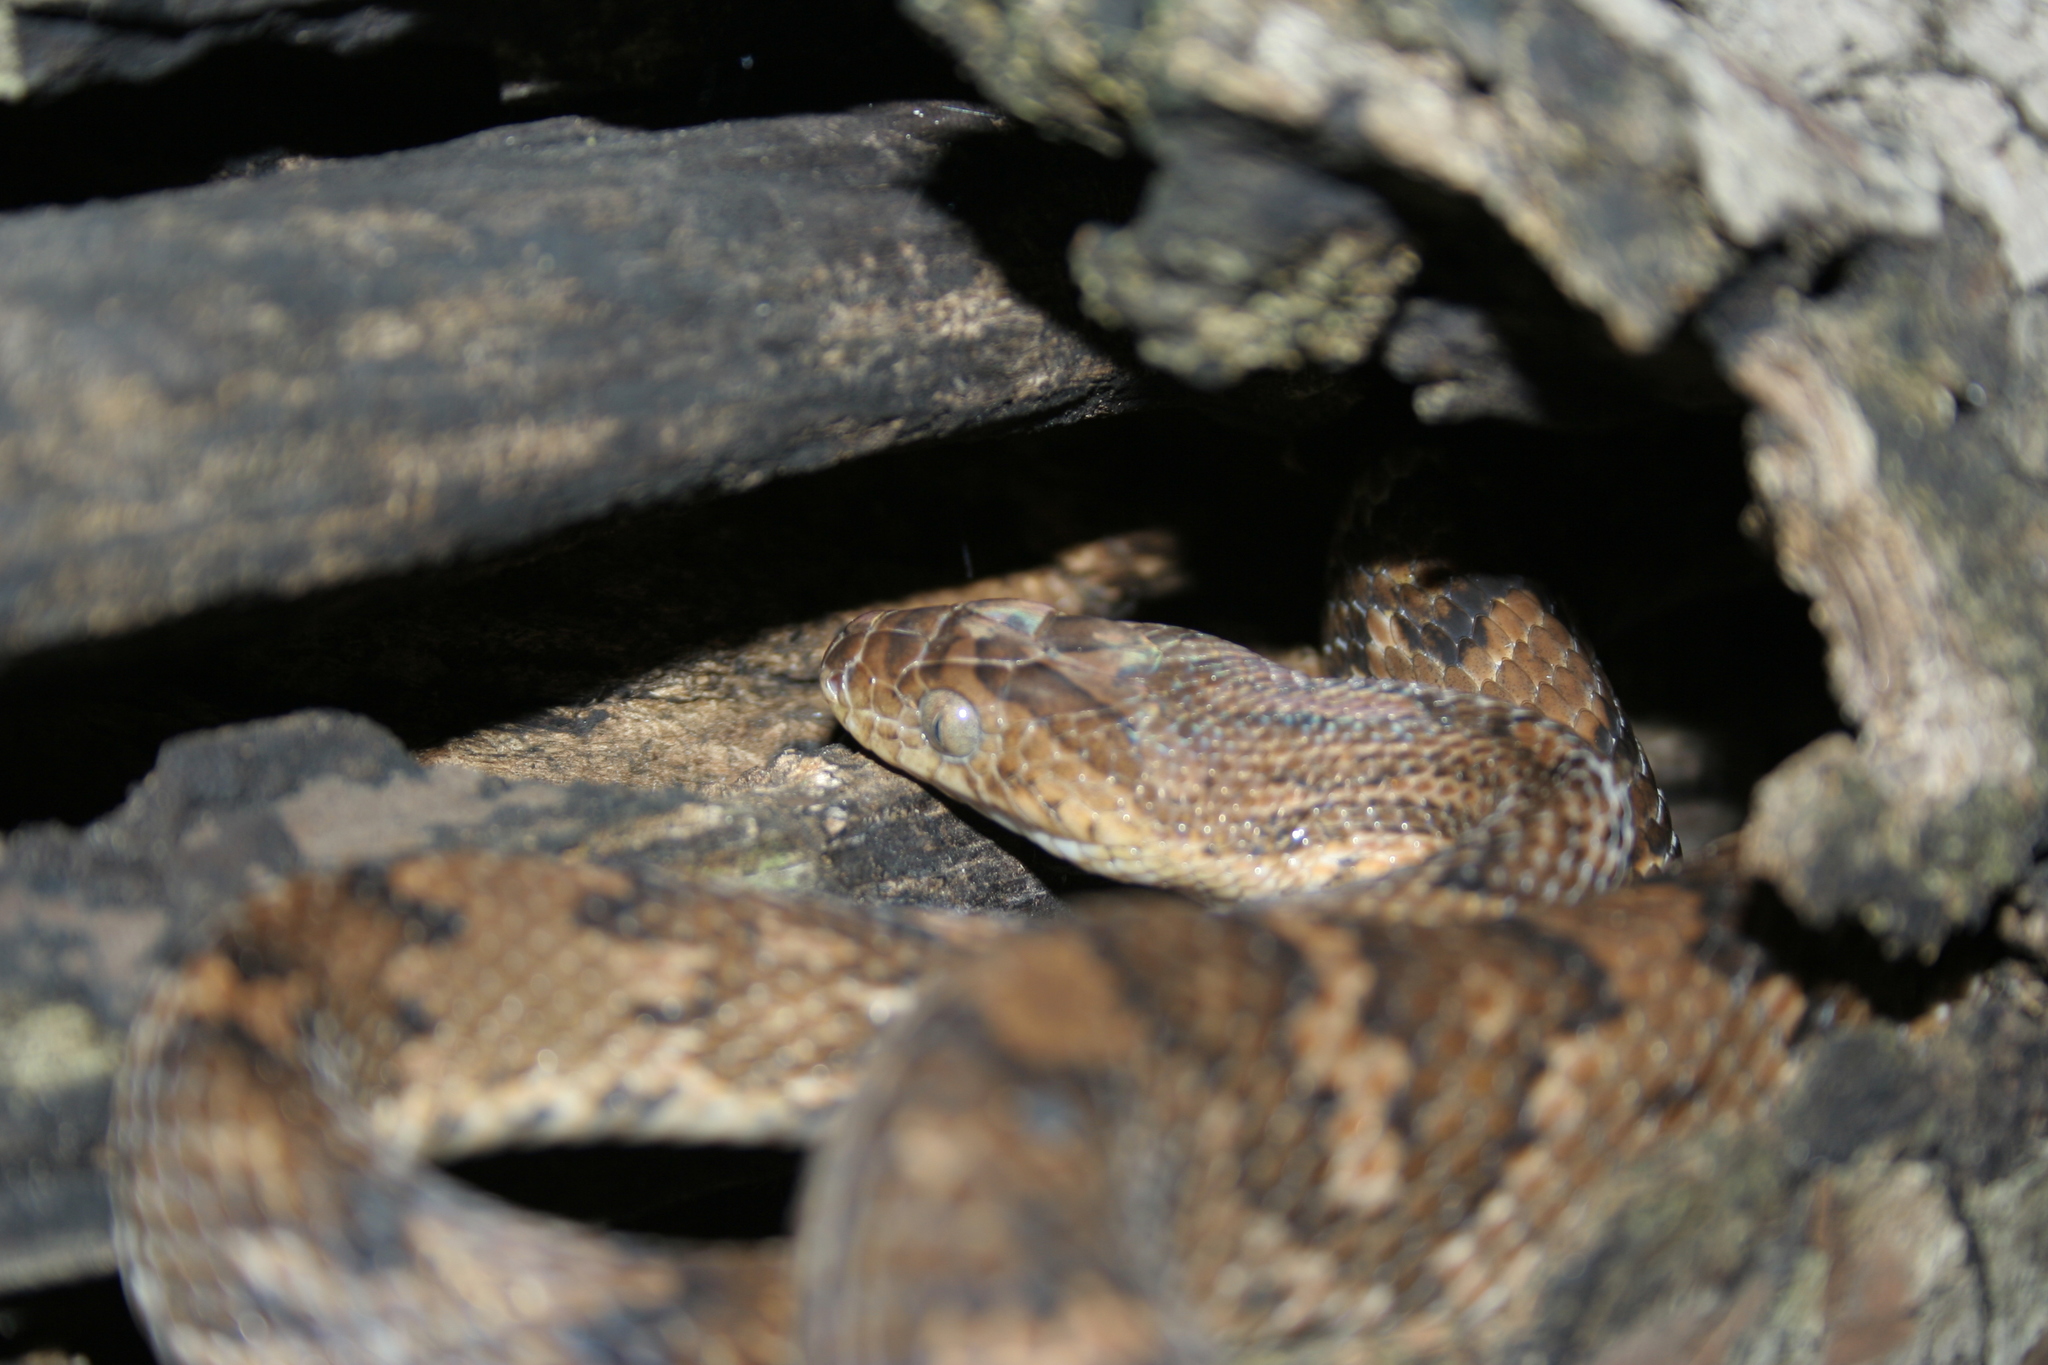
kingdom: Animalia
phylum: Chordata
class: Squamata
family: Colubridae
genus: Trimorphodon
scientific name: Trimorphodon quadruplex
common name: Central american lyre snake
